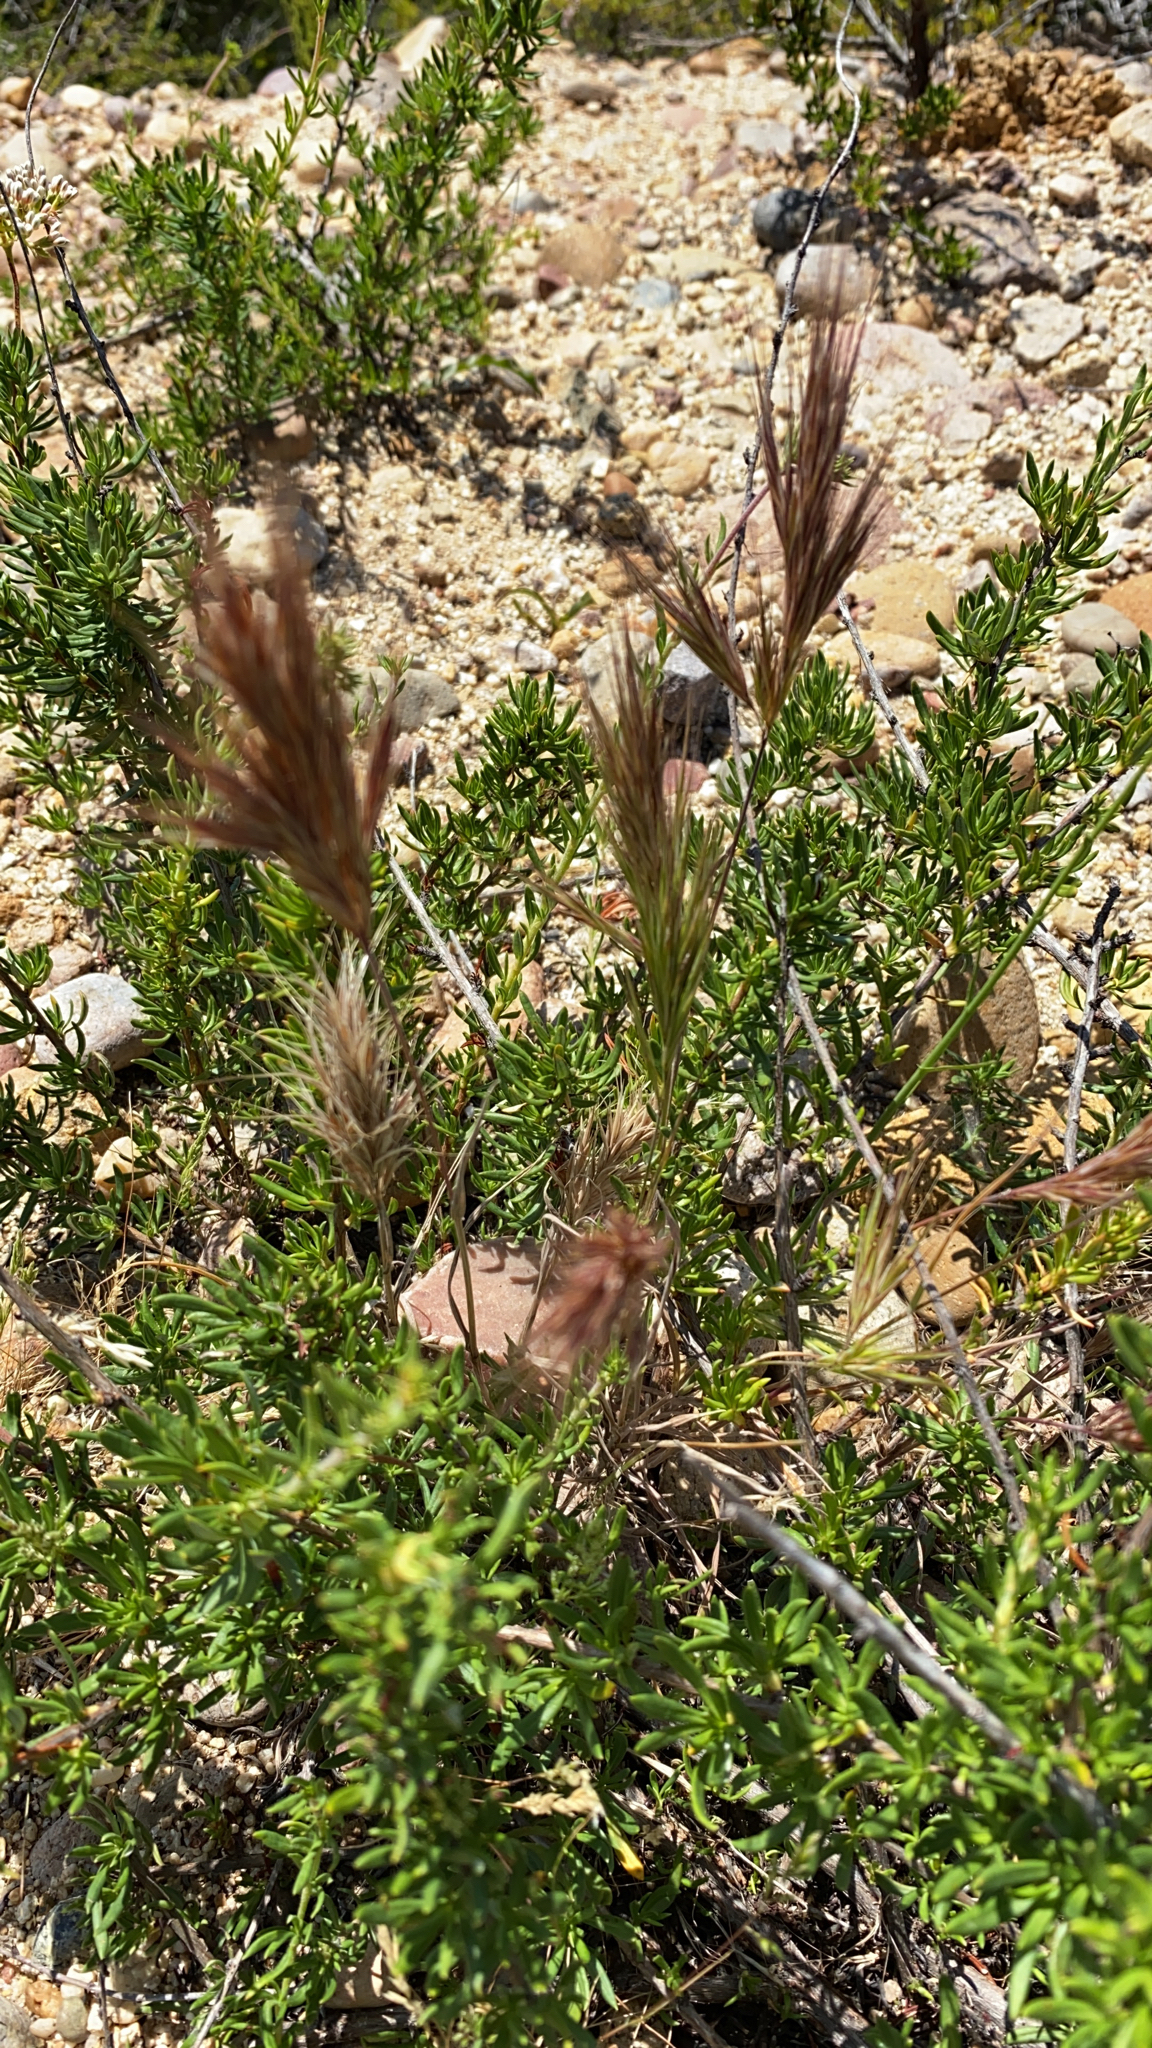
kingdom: Plantae
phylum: Tracheophyta
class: Liliopsida
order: Poales
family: Poaceae
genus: Bromus
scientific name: Bromus rubens
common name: Red brome
